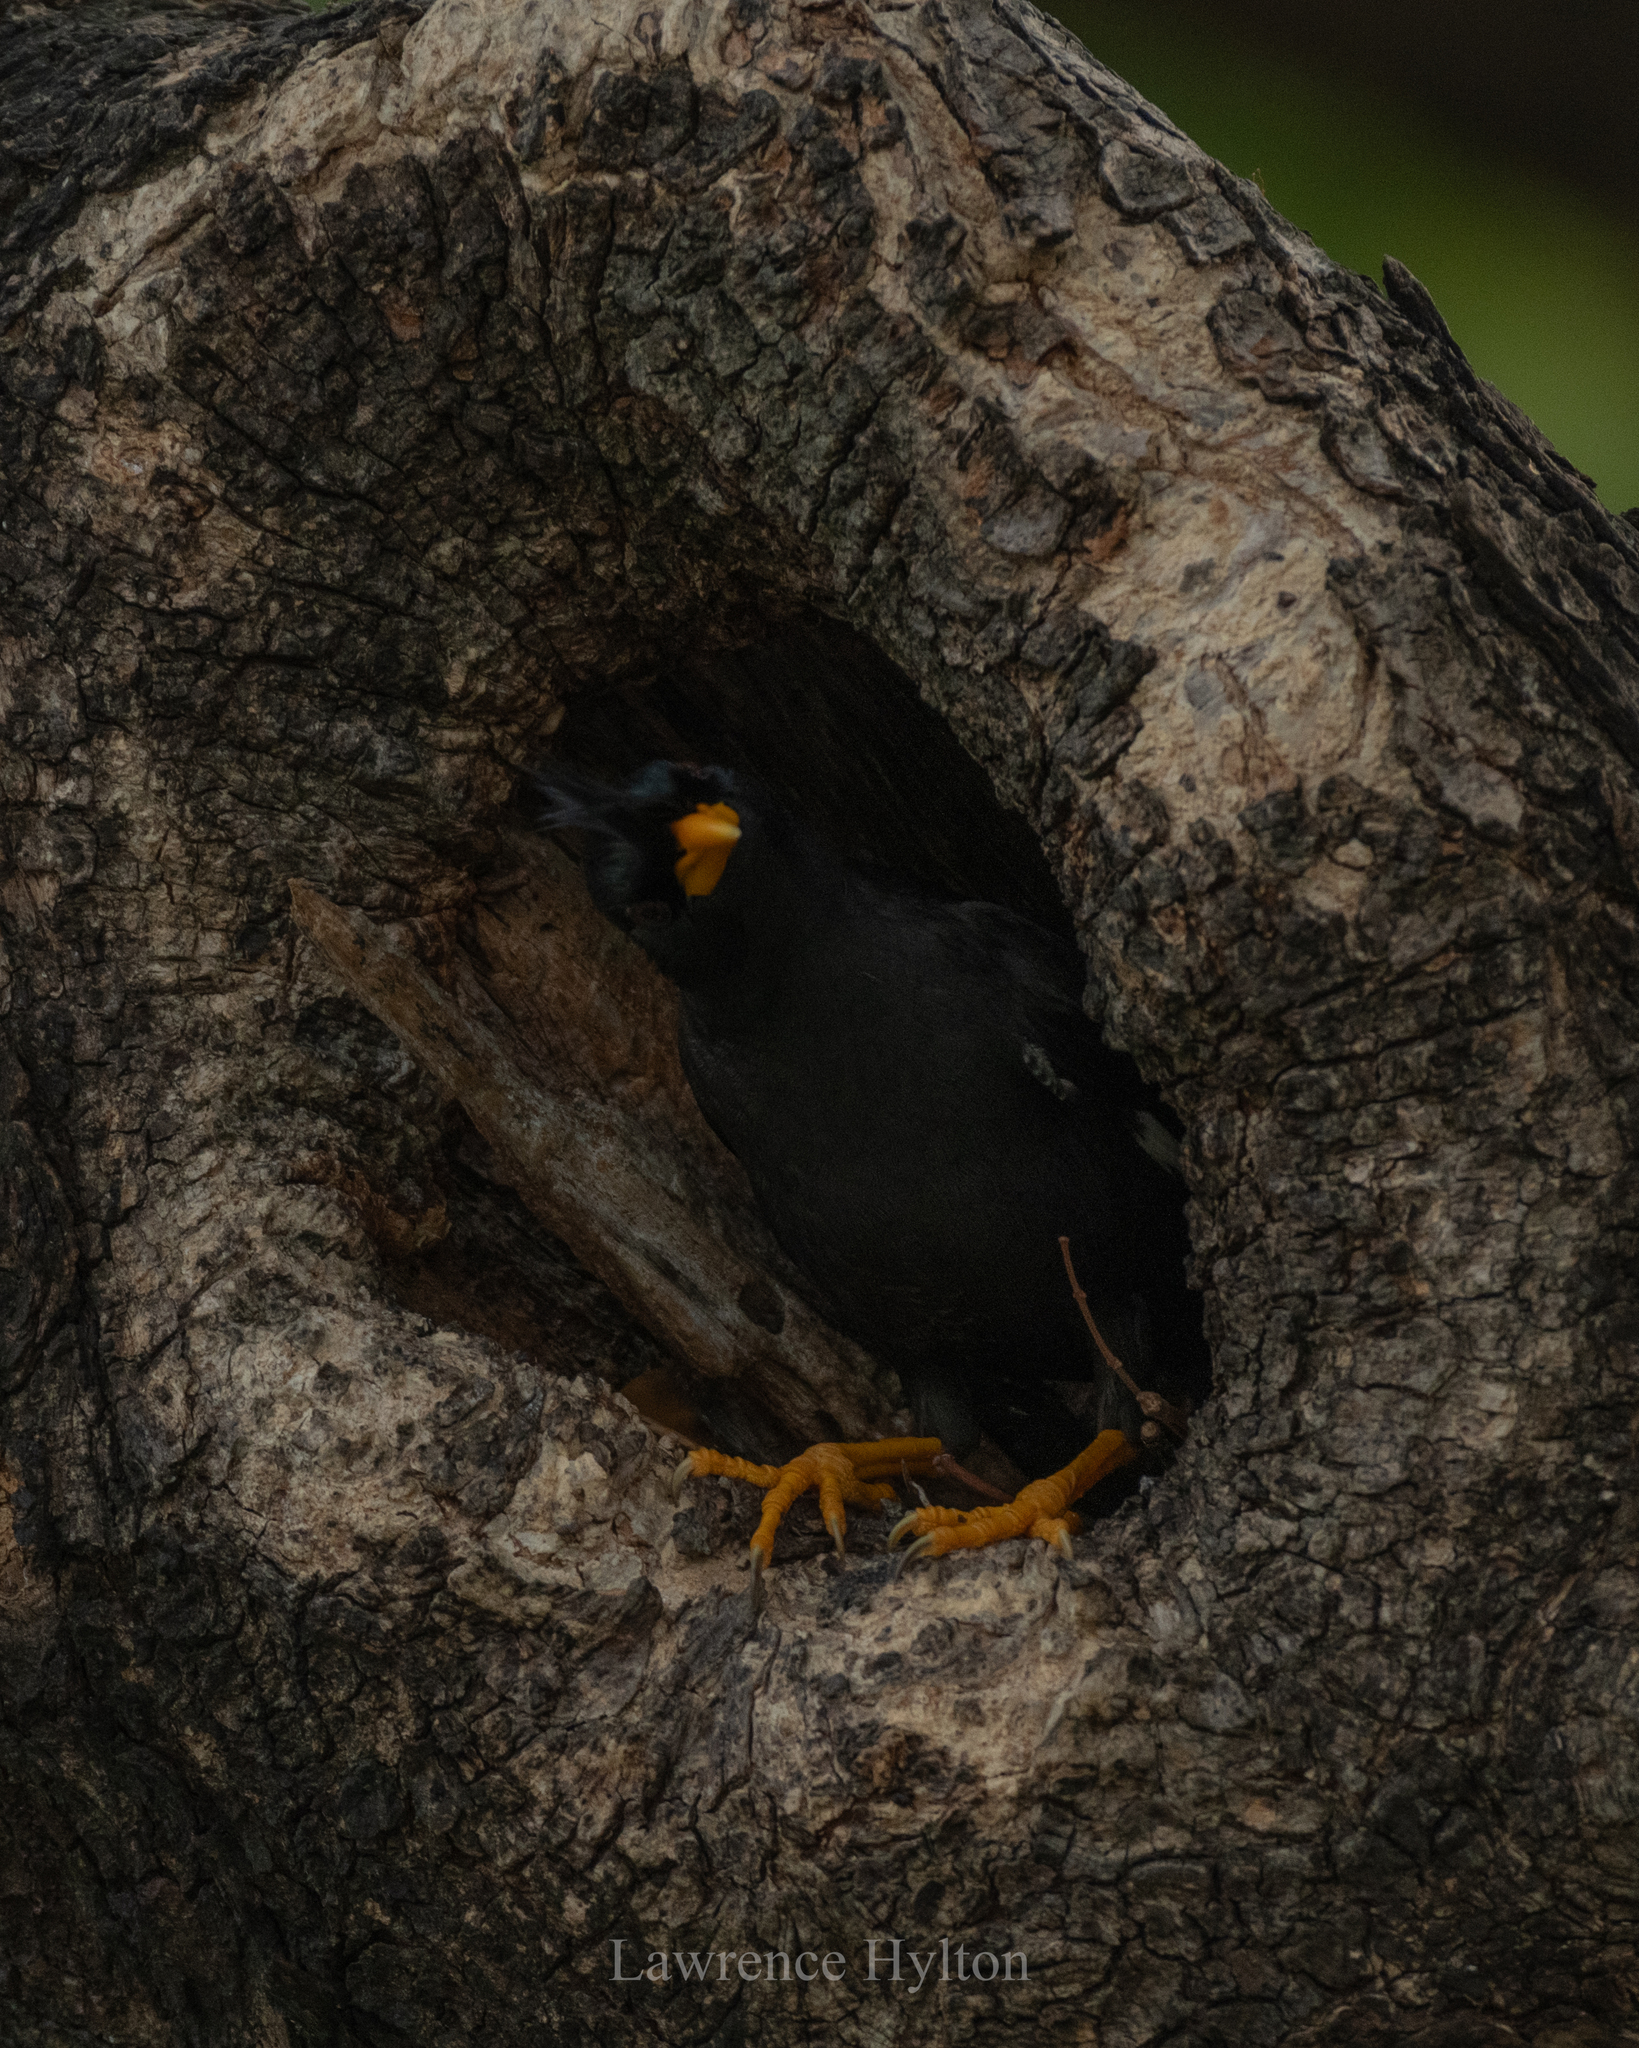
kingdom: Animalia
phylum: Chordata
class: Aves
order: Passeriformes
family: Sturnidae
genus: Acridotheres
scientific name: Acridotheres grandis
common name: Great myna
